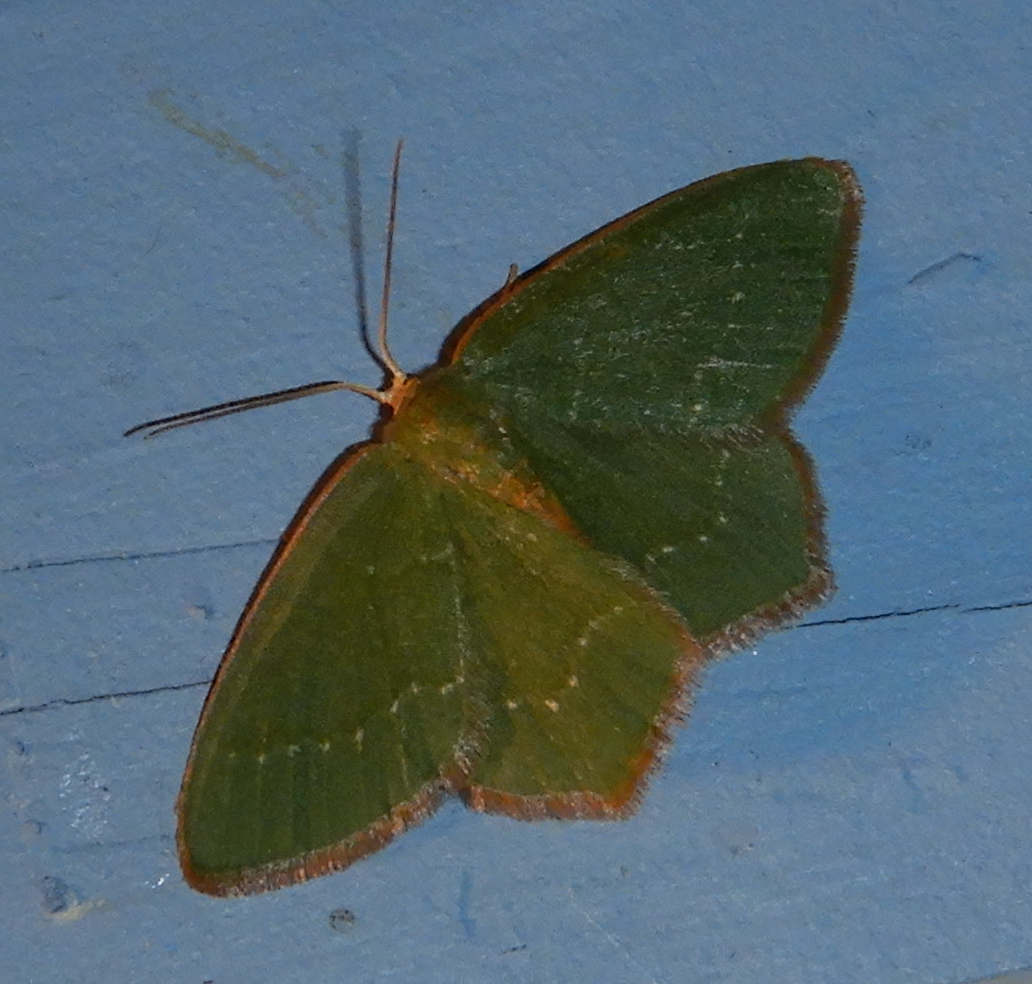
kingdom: Animalia
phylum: Arthropoda
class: Insecta
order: Lepidoptera
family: Geometridae
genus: Thalera
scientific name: Thalera pistasciaria
